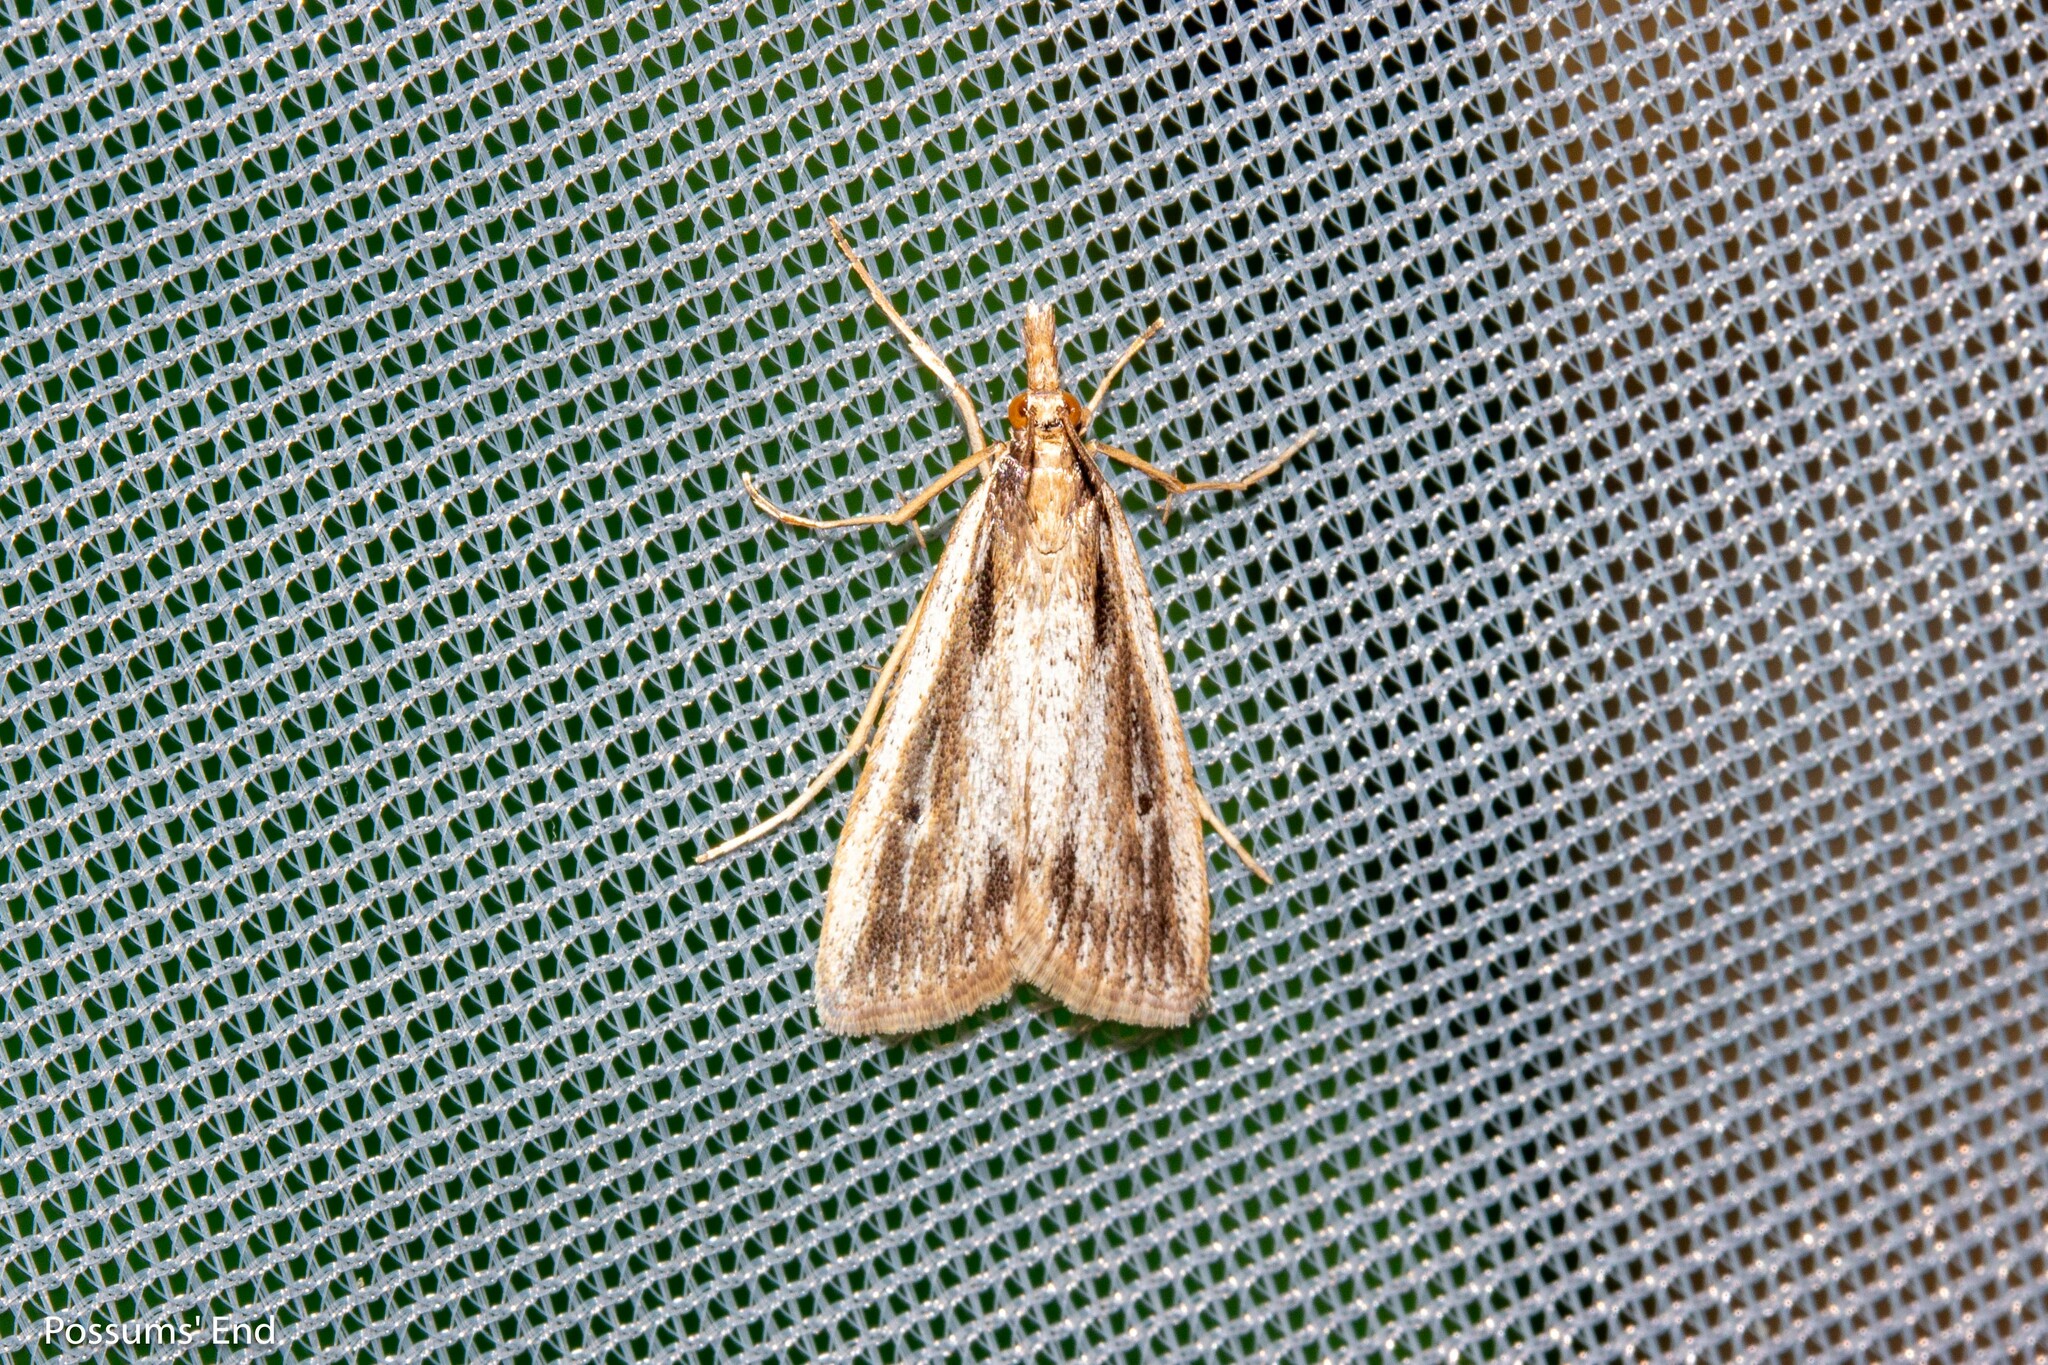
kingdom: Animalia
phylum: Arthropoda
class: Insecta
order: Lepidoptera
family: Crambidae
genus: Eudonia
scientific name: Eudonia sabulosella
